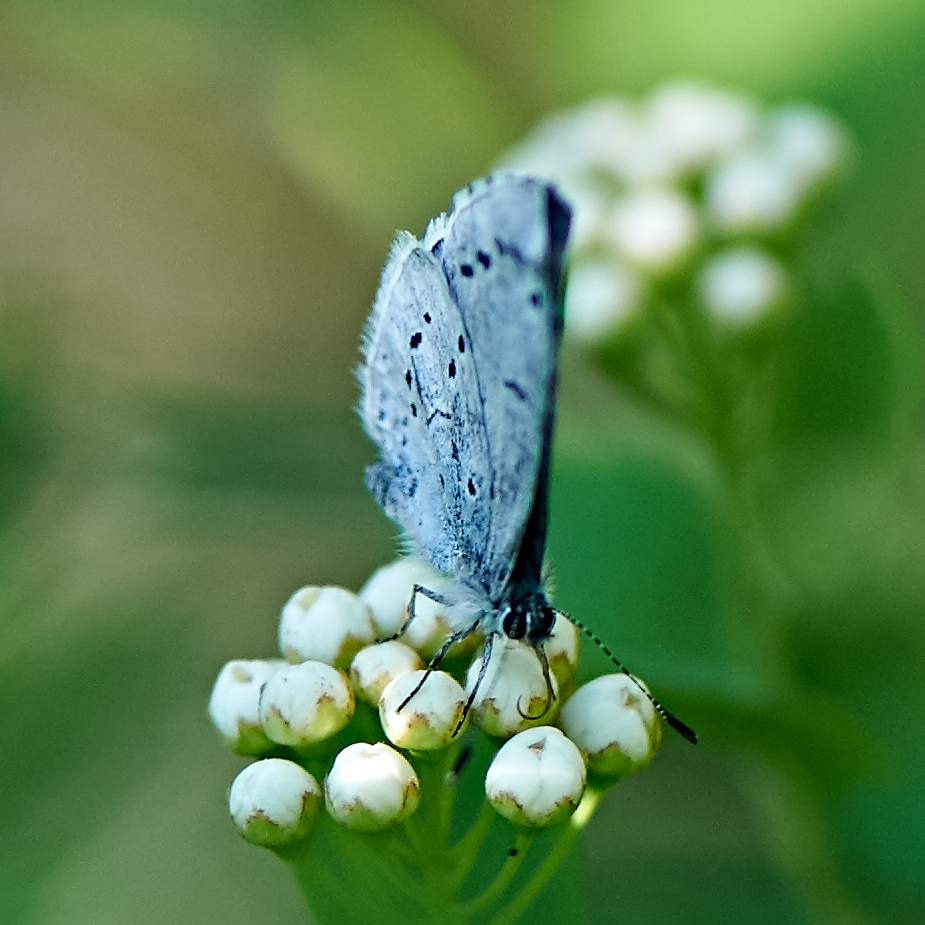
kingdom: Animalia
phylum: Arthropoda
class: Insecta
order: Lepidoptera
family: Lycaenidae
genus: Celastrina
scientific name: Celastrina argiolus
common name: Holly blue
